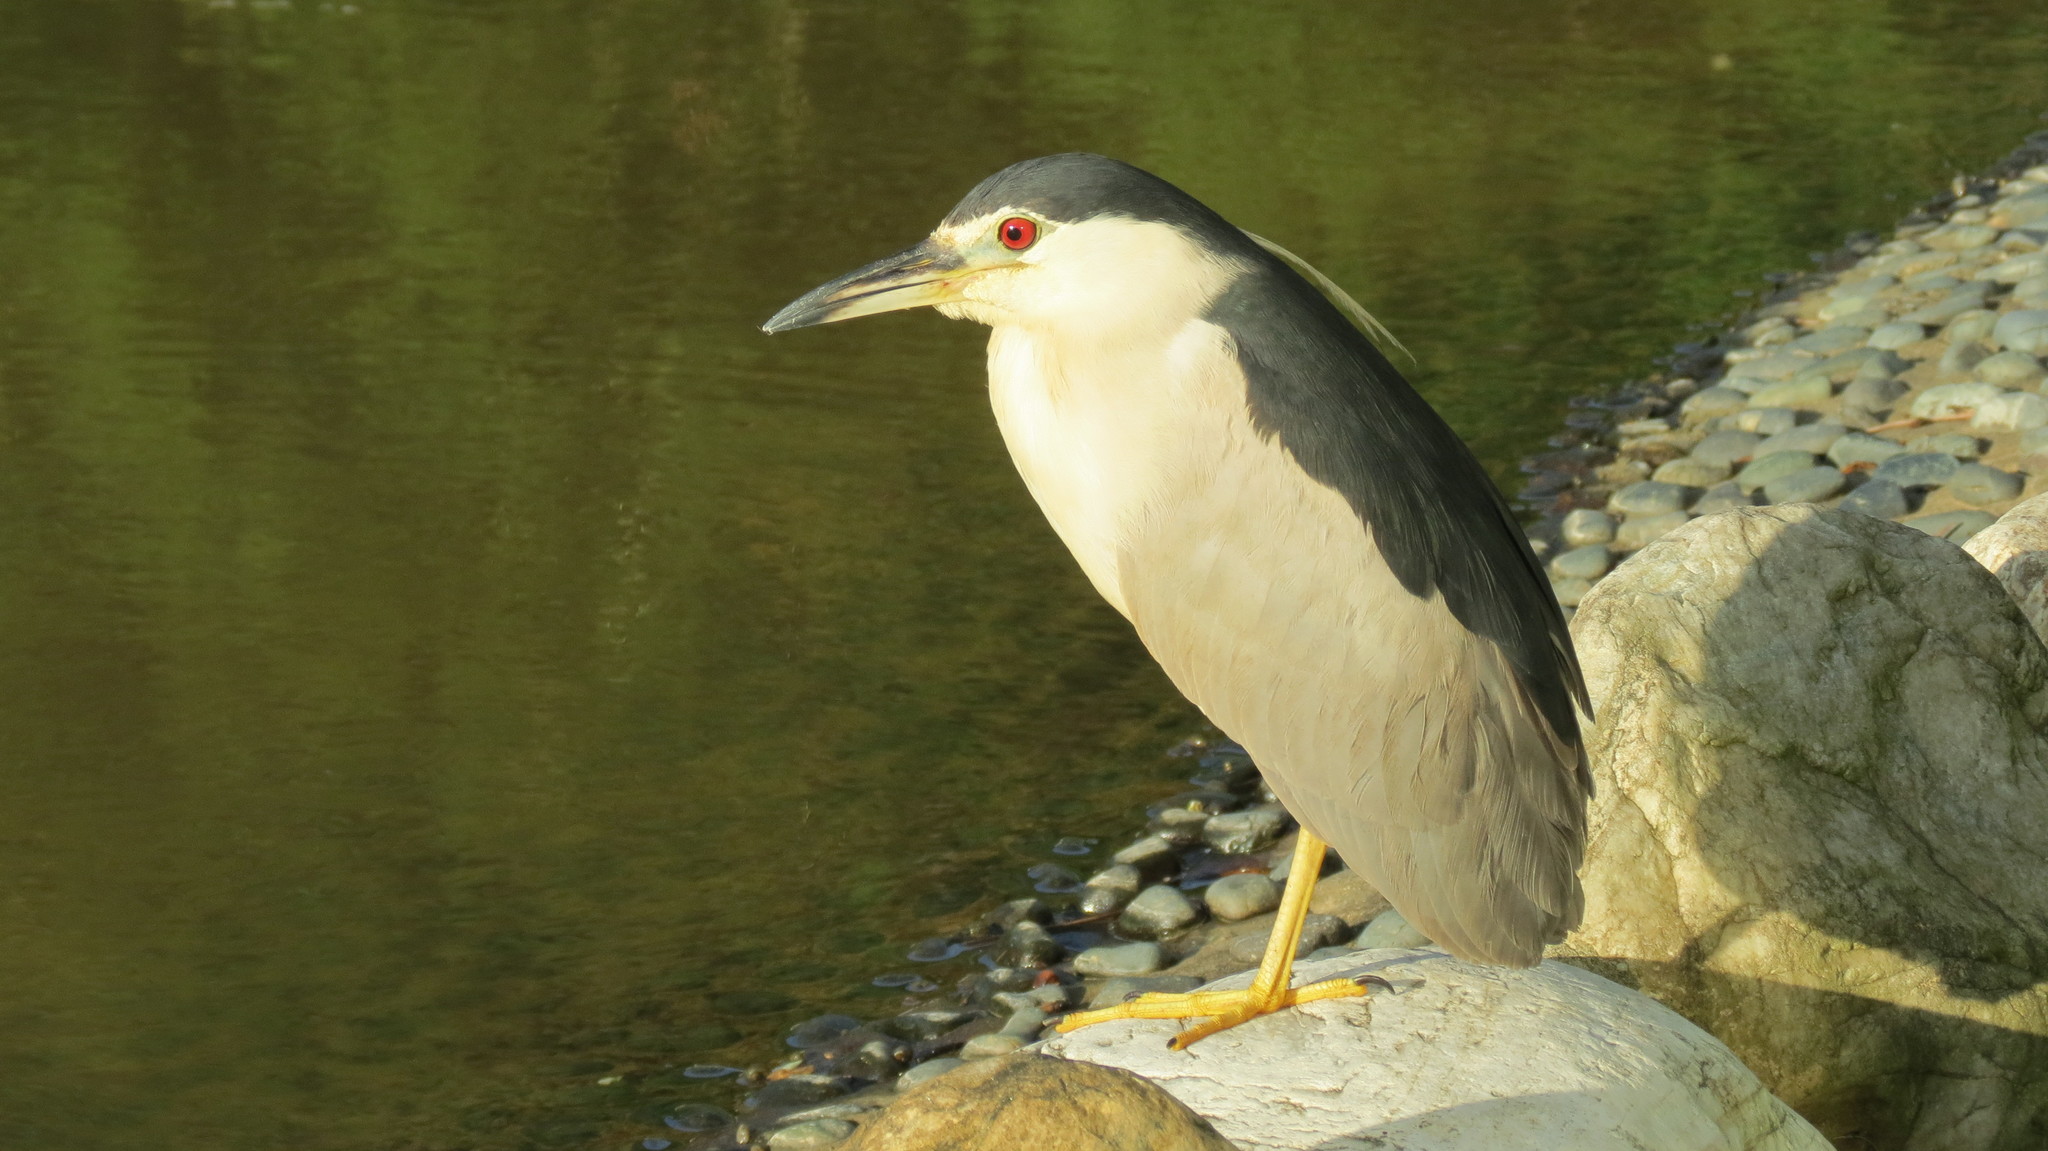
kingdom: Animalia
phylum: Chordata
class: Aves
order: Pelecaniformes
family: Ardeidae
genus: Nycticorax
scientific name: Nycticorax nycticorax
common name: Black-crowned night heron
